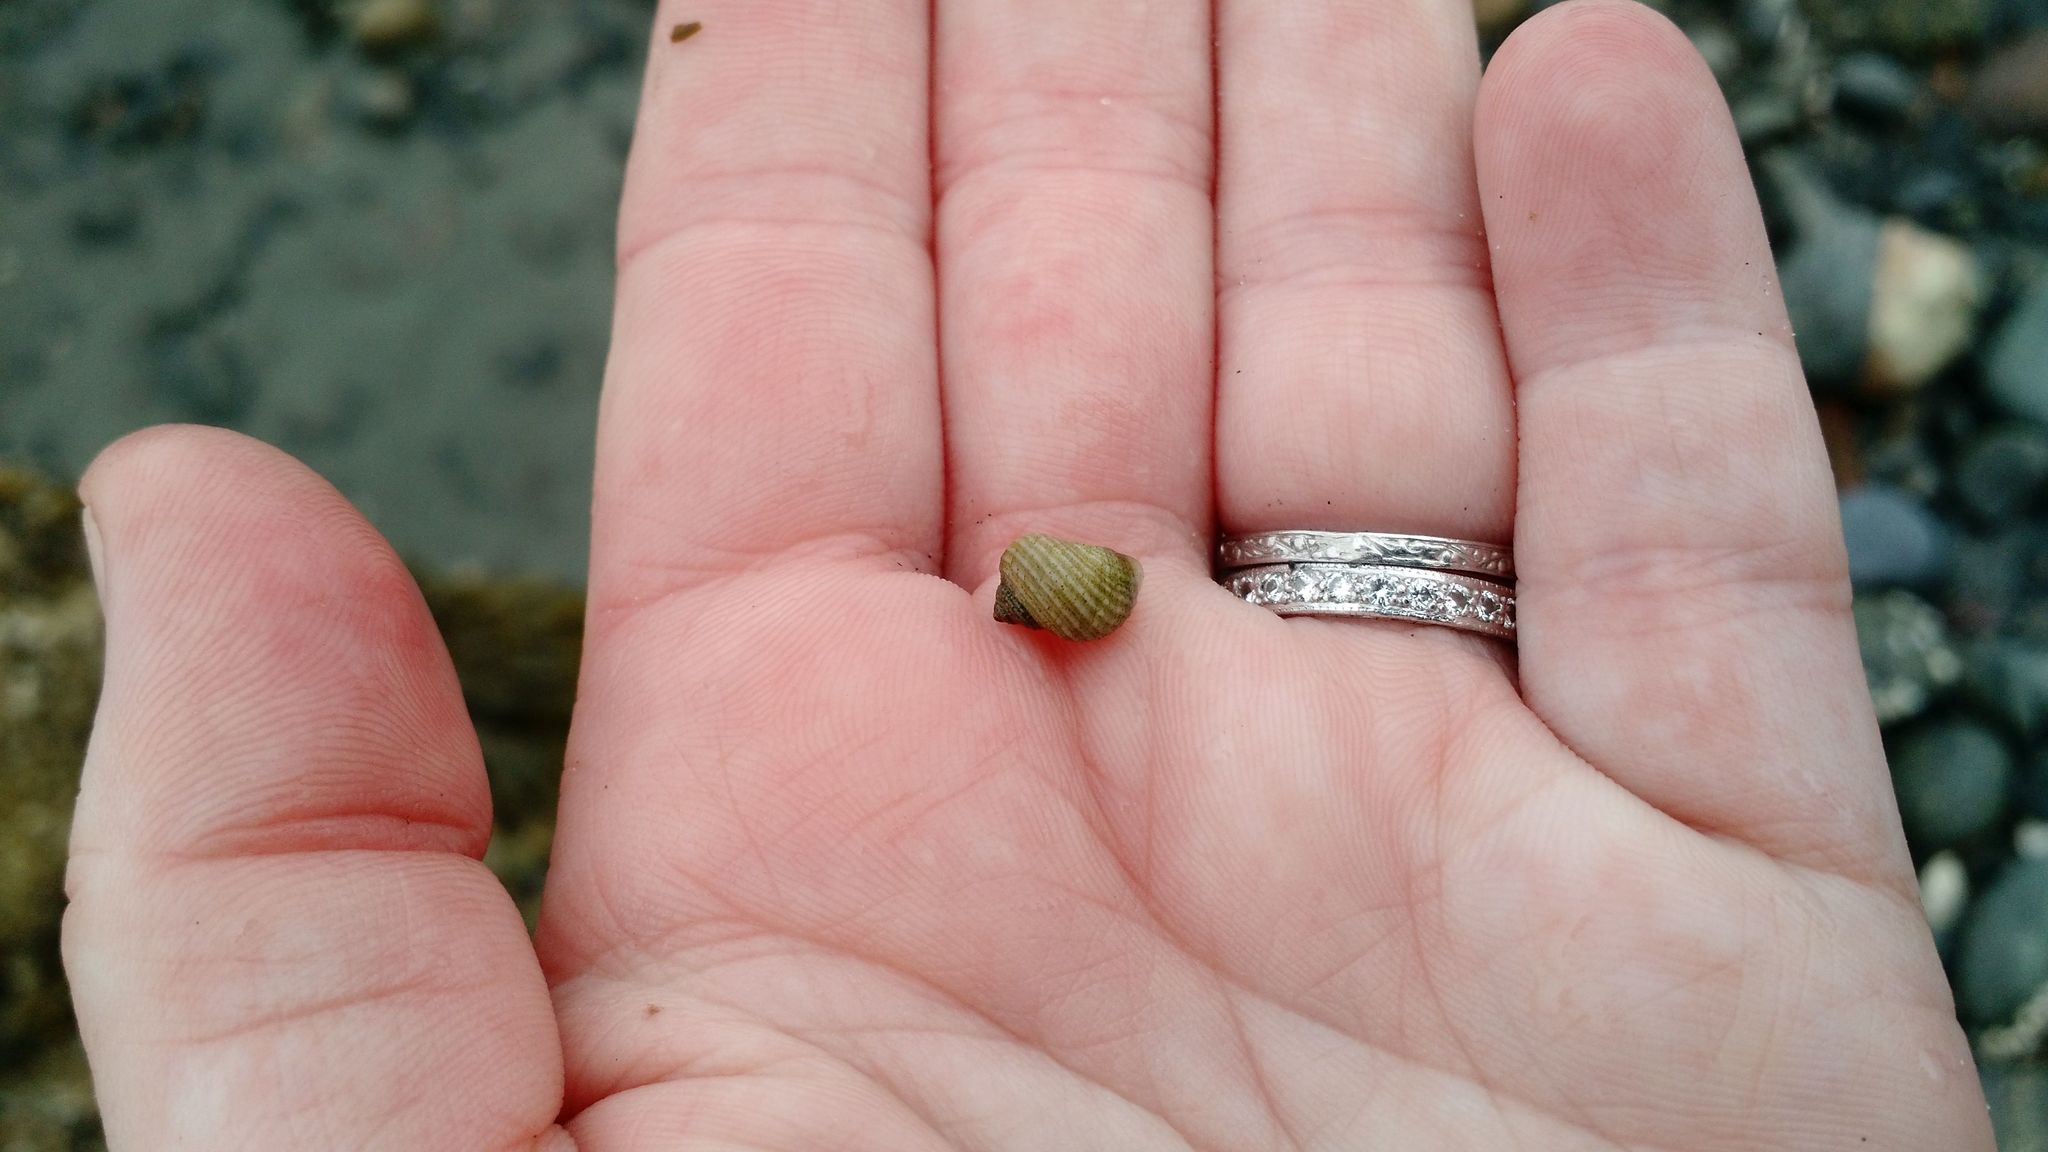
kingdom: Animalia
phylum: Mollusca
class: Gastropoda
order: Littorinimorpha
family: Littorinidae
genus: Littorina
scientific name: Littorina saxatilis
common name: Black-lined periwinkle
